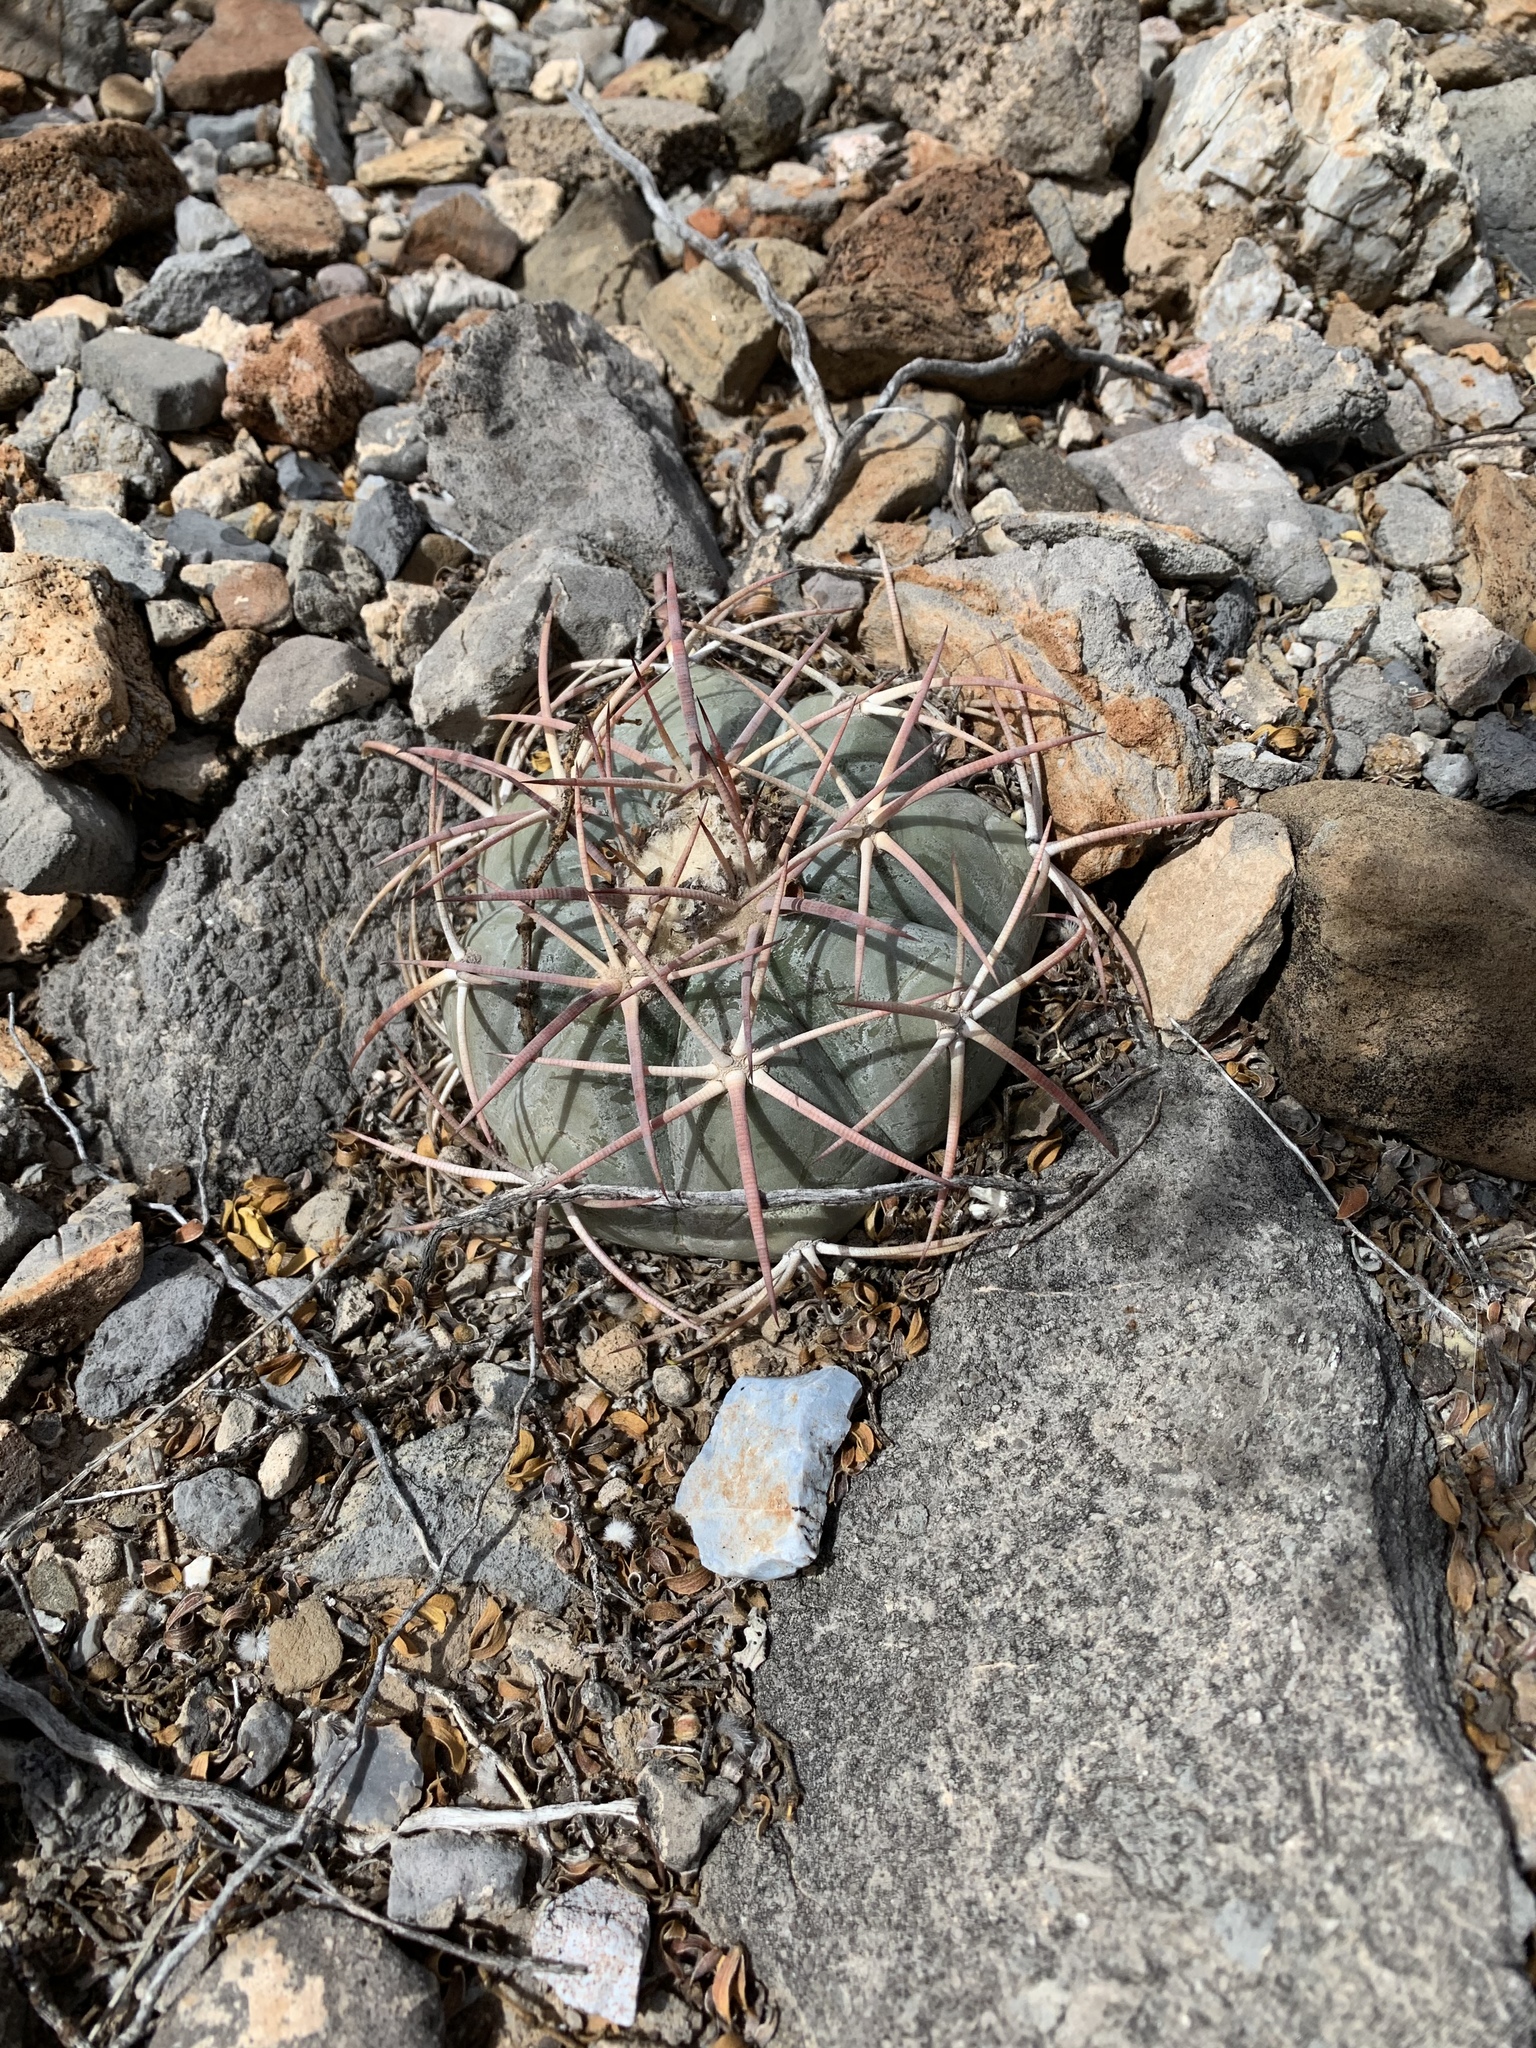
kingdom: Plantae
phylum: Tracheophyta
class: Magnoliopsida
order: Caryophyllales
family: Cactaceae
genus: Echinocactus
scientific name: Echinocactus horizonthalonius
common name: Devilshead
